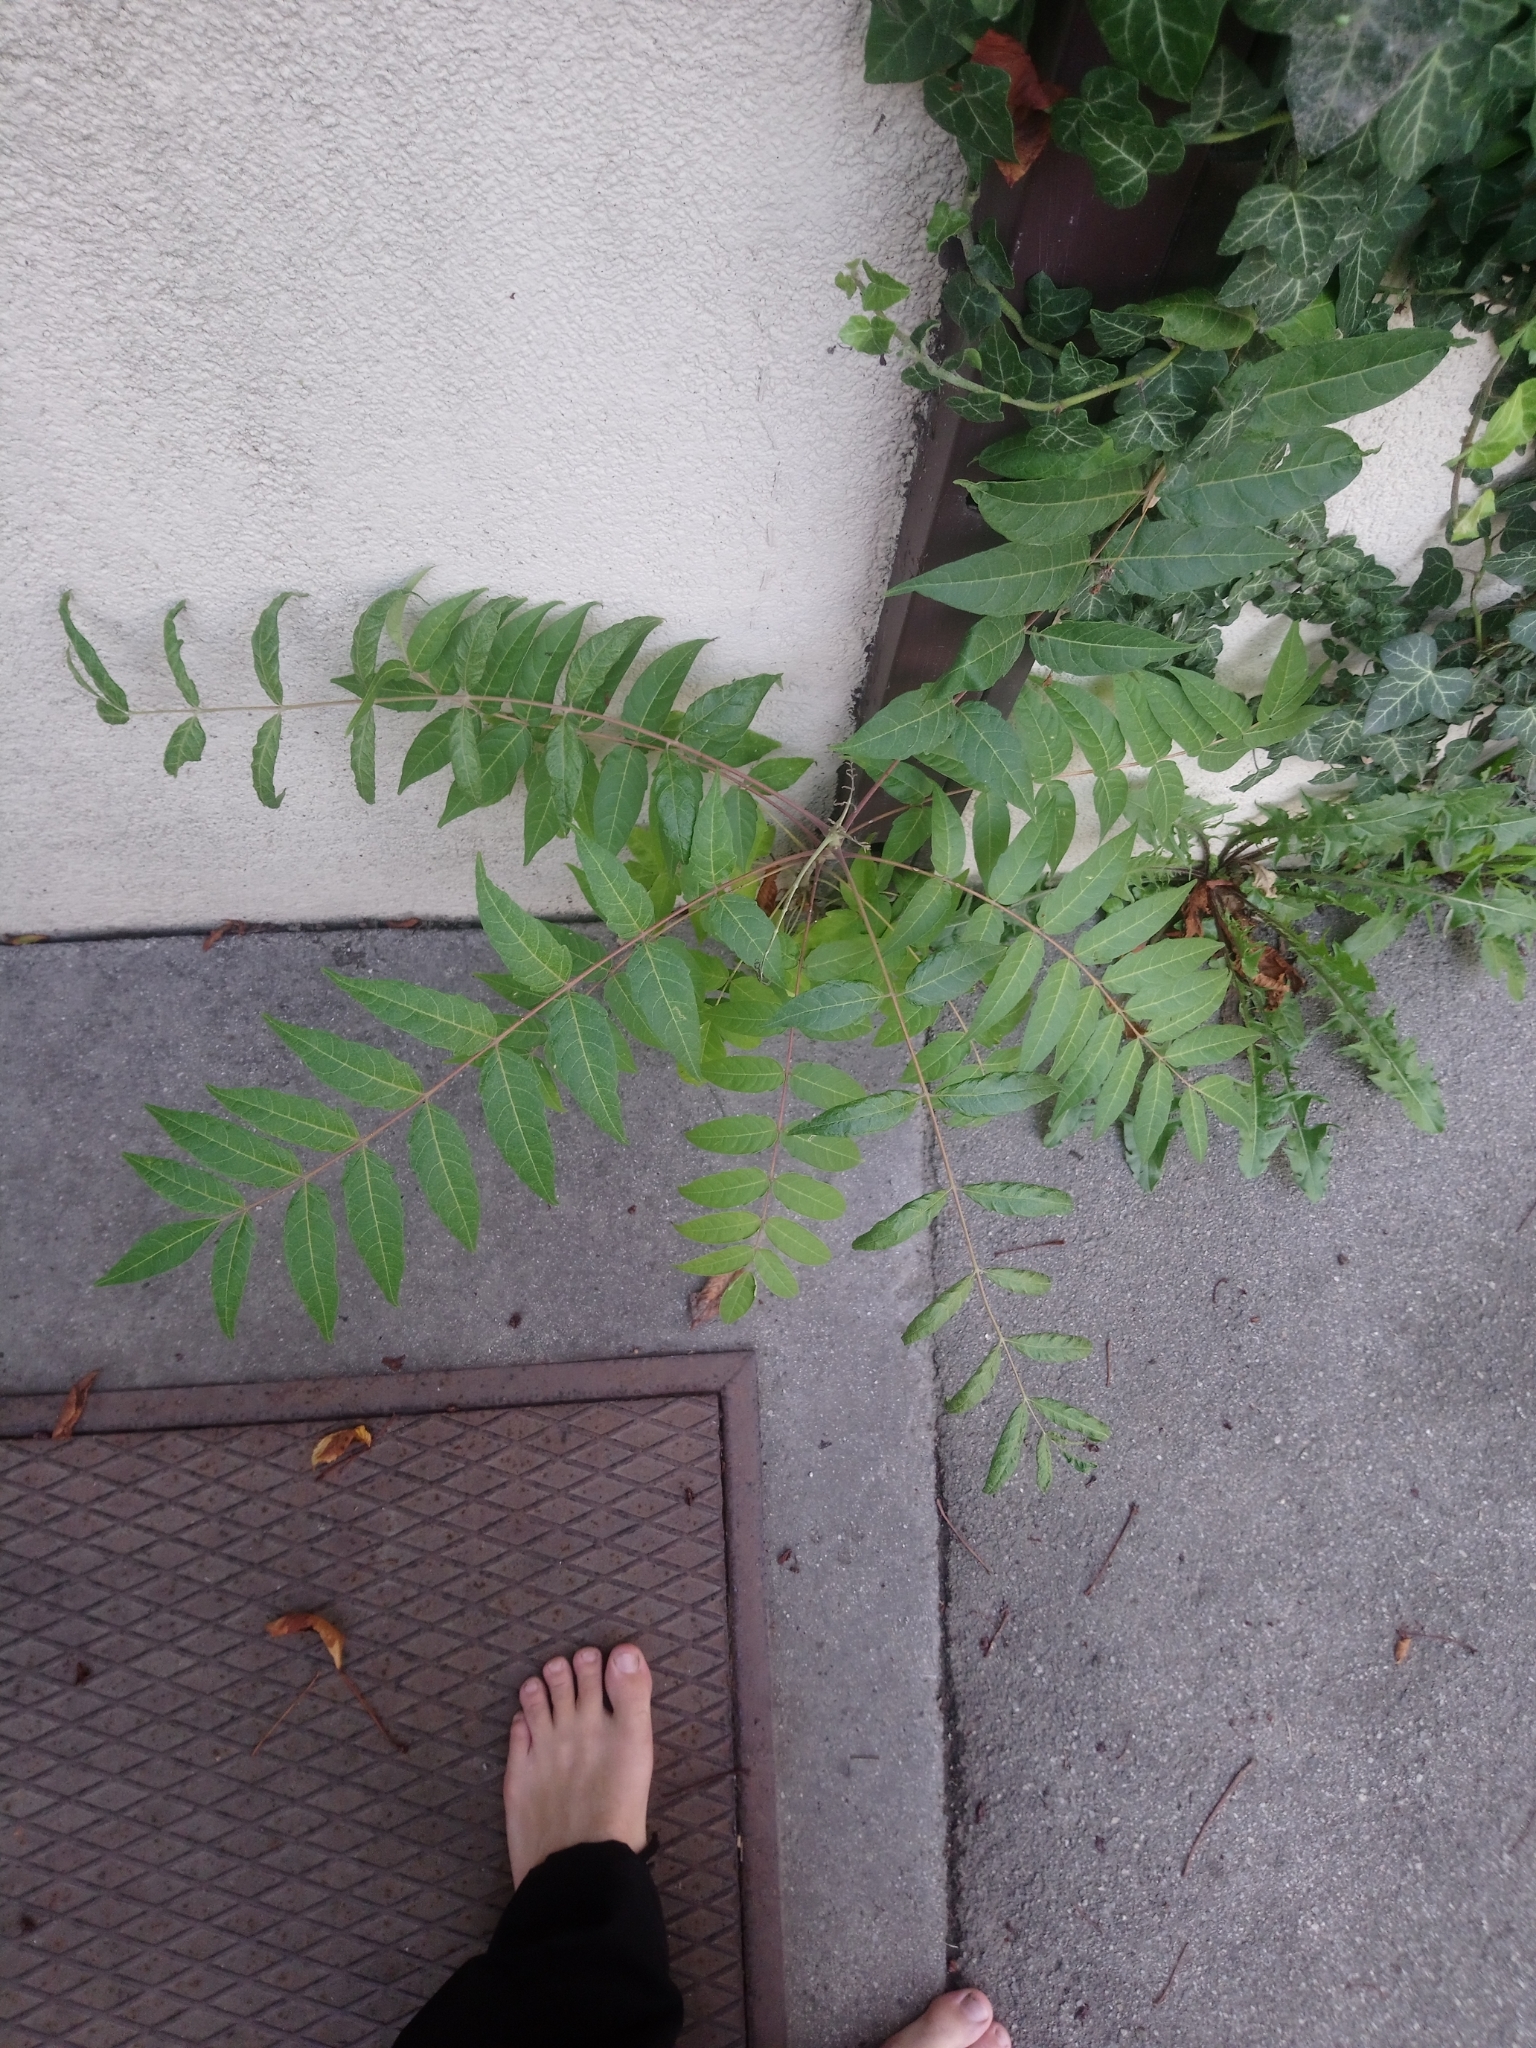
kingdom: Plantae
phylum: Tracheophyta
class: Magnoliopsida
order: Sapindales
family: Simaroubaceae
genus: Ailanthus
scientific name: Ailanthus altissima
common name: Tree-of-heaven
